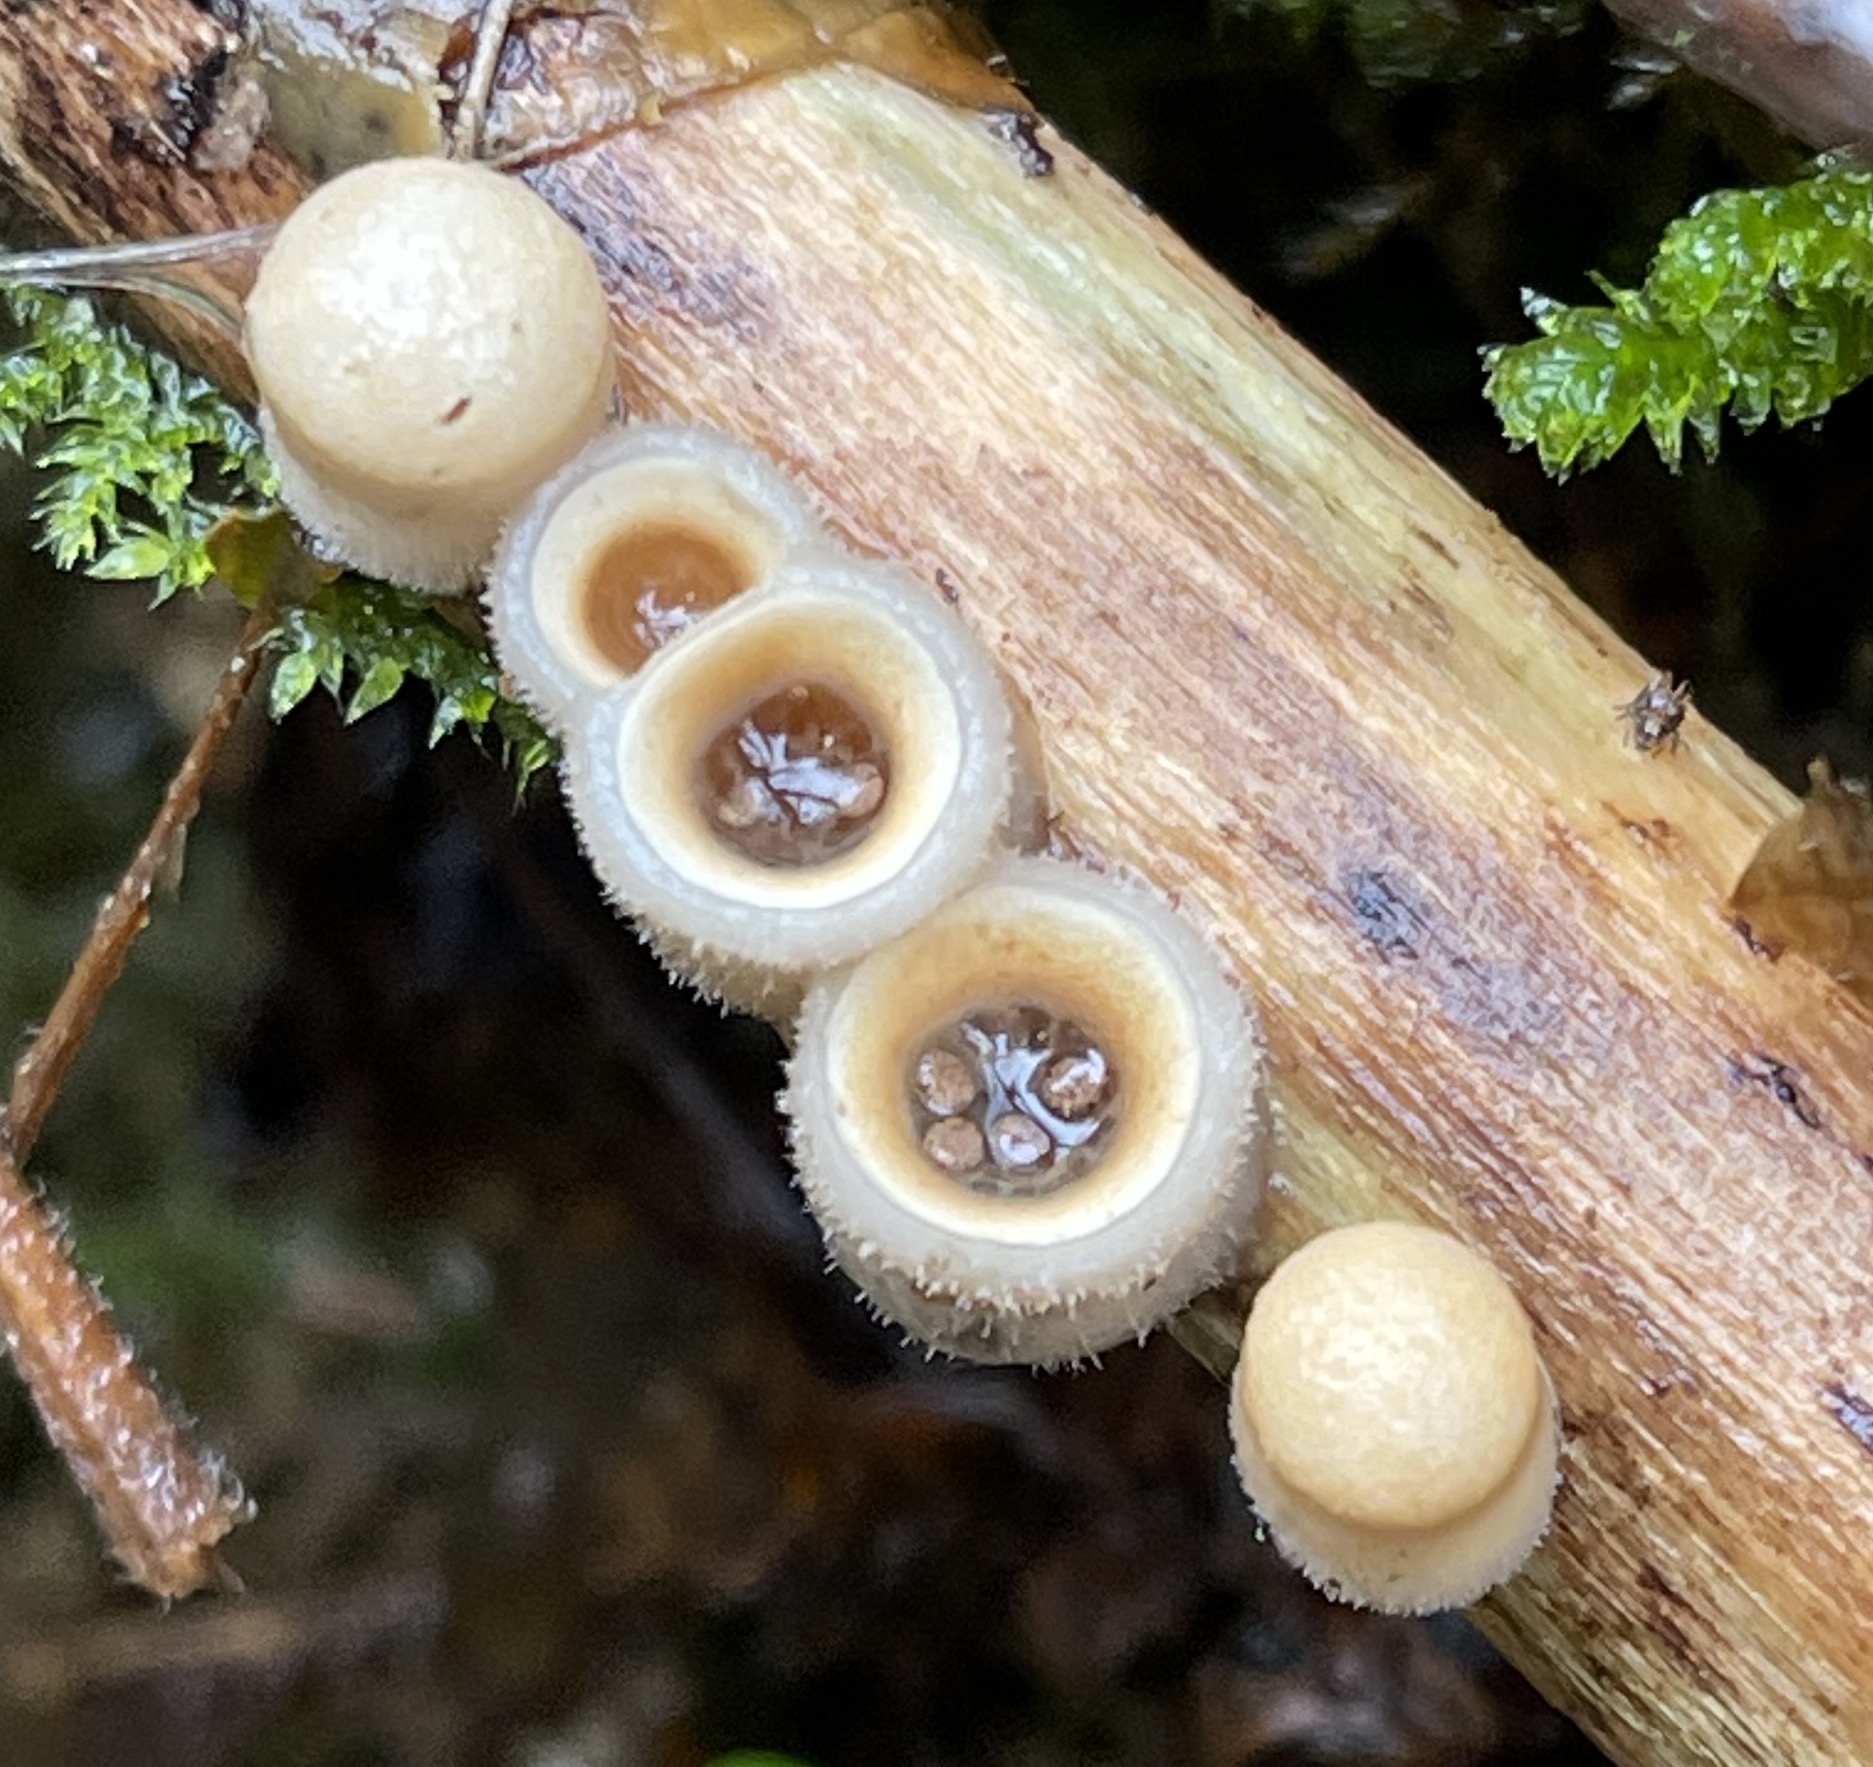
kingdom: Fungi
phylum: Basidiomycota
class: Agaricomycetes
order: Agaricales
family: Agaricaceae
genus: Nidula
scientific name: Nidula candida
